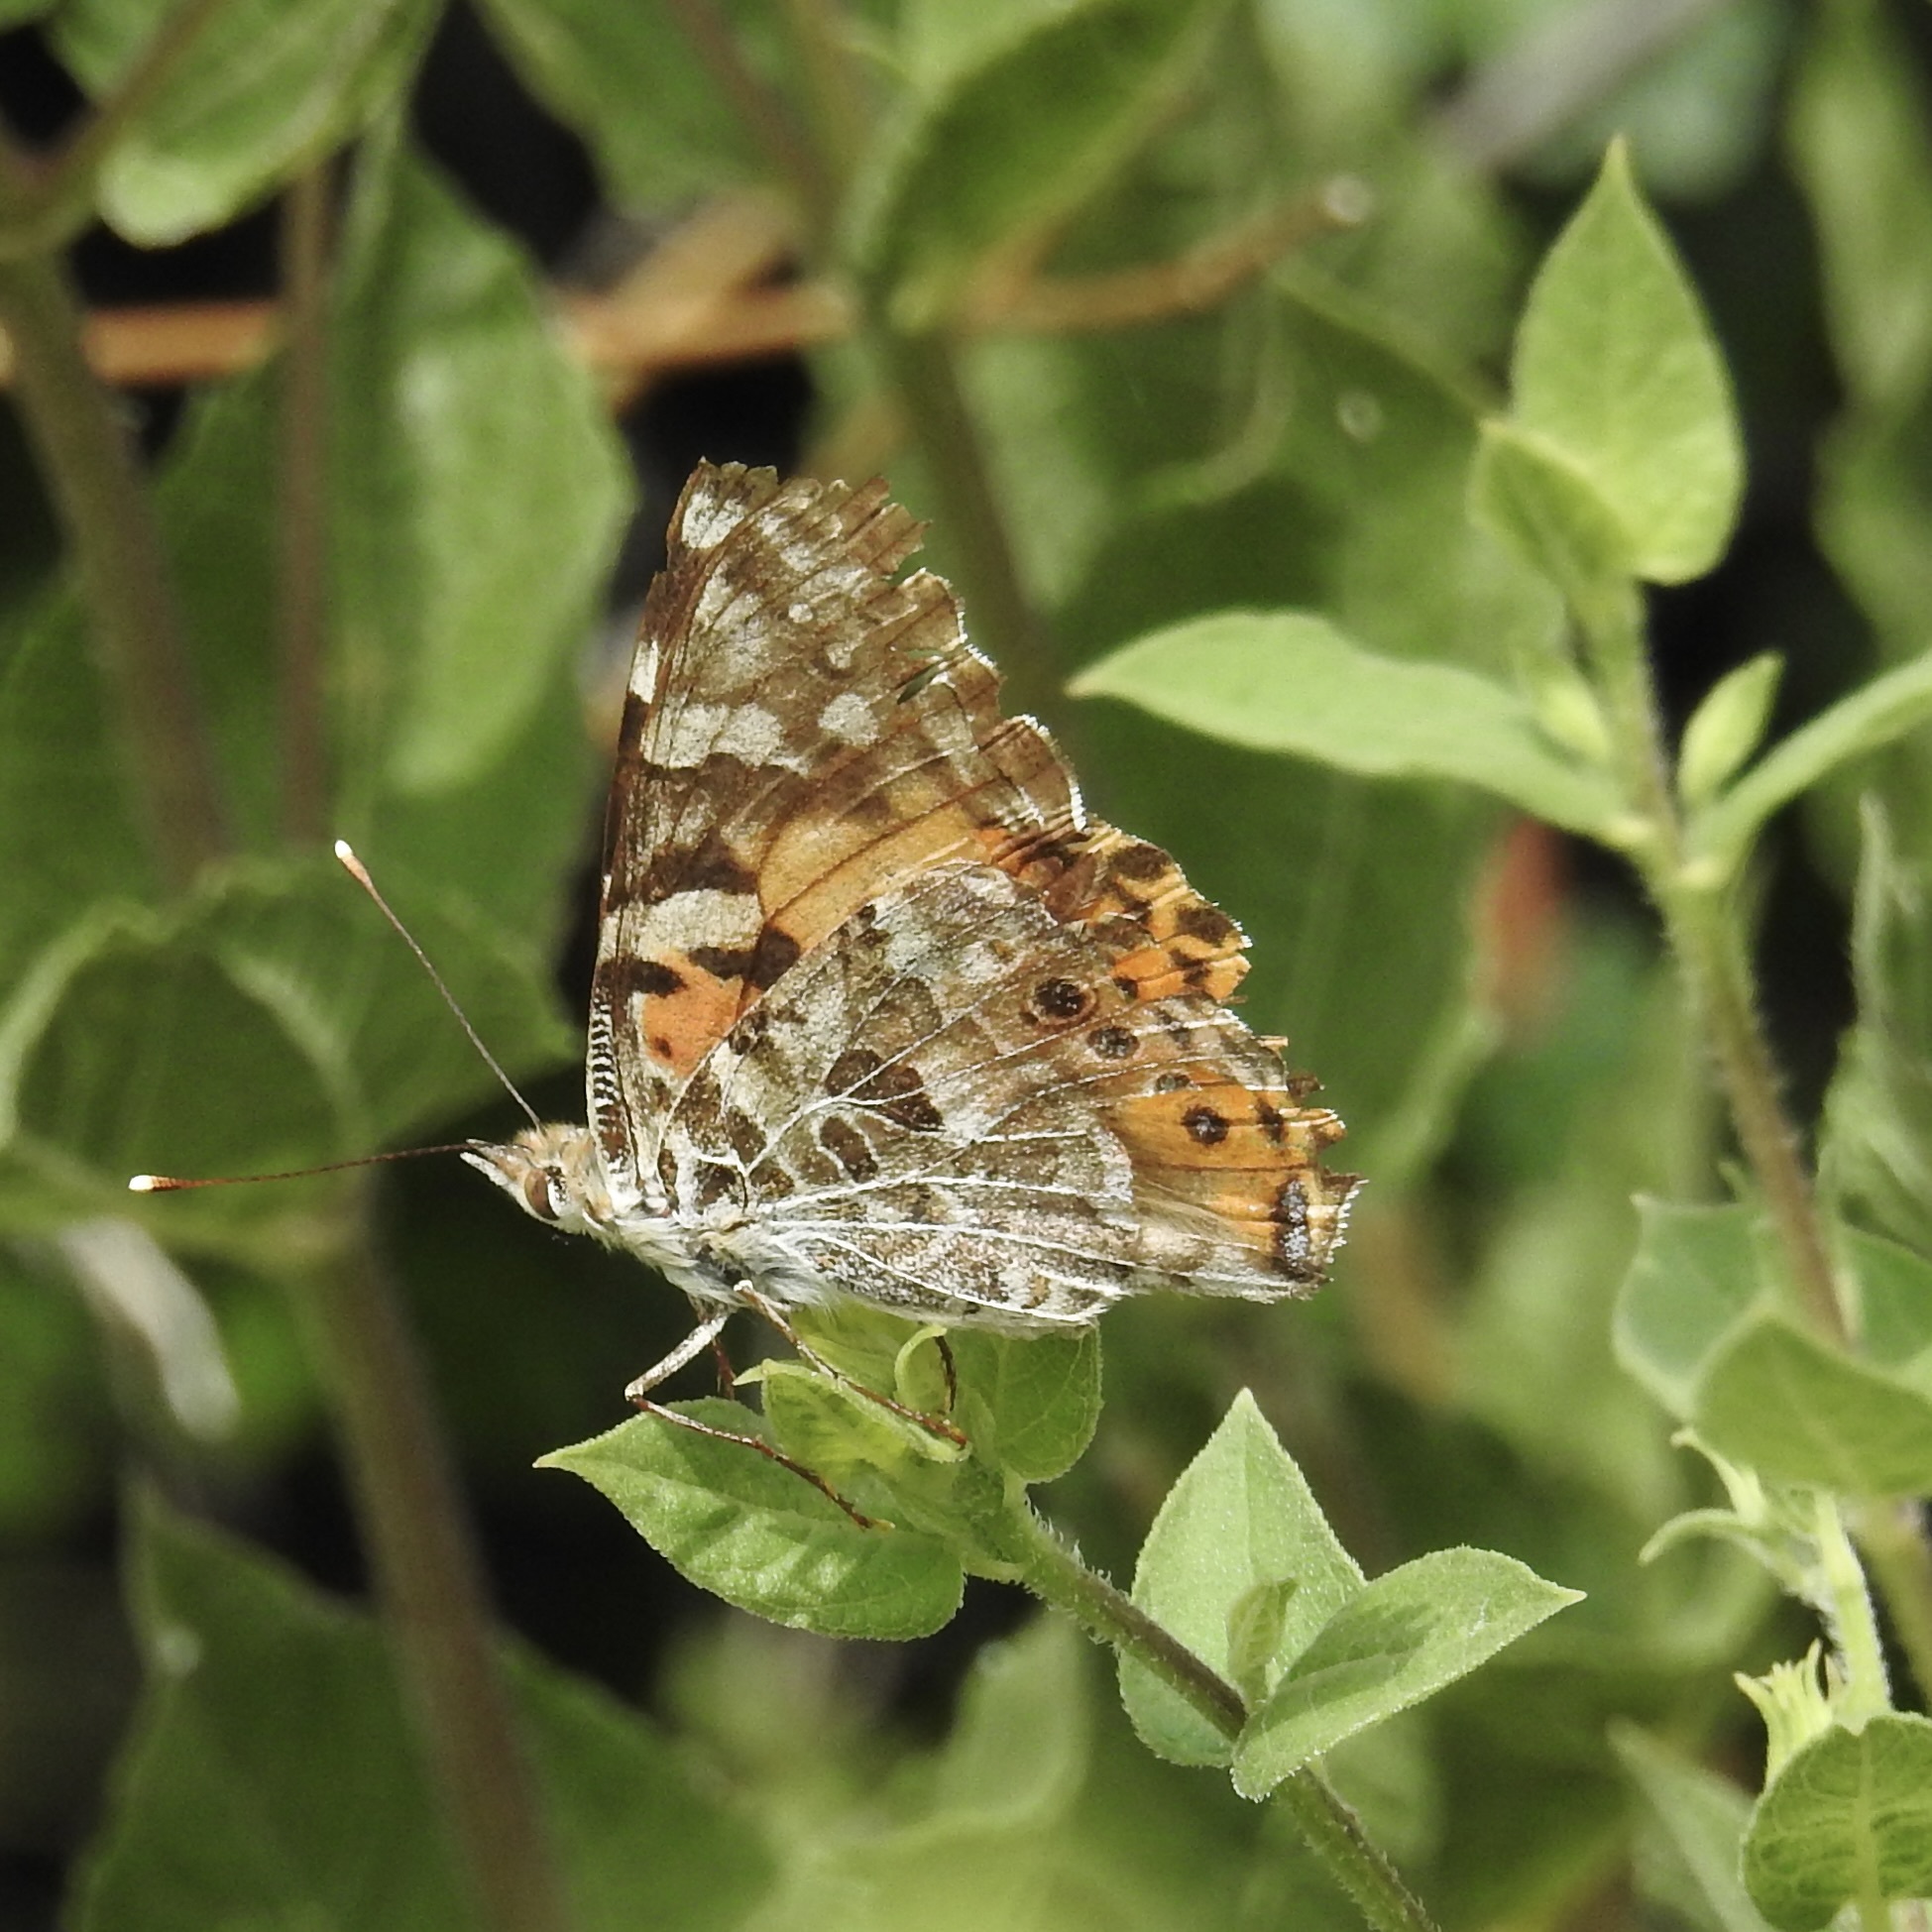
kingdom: Animalia
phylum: Arthropoda
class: Insecta
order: Lepidoptera
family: Nymphalidae
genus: Vanessa
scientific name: Vanessa cardui
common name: Painted lady
